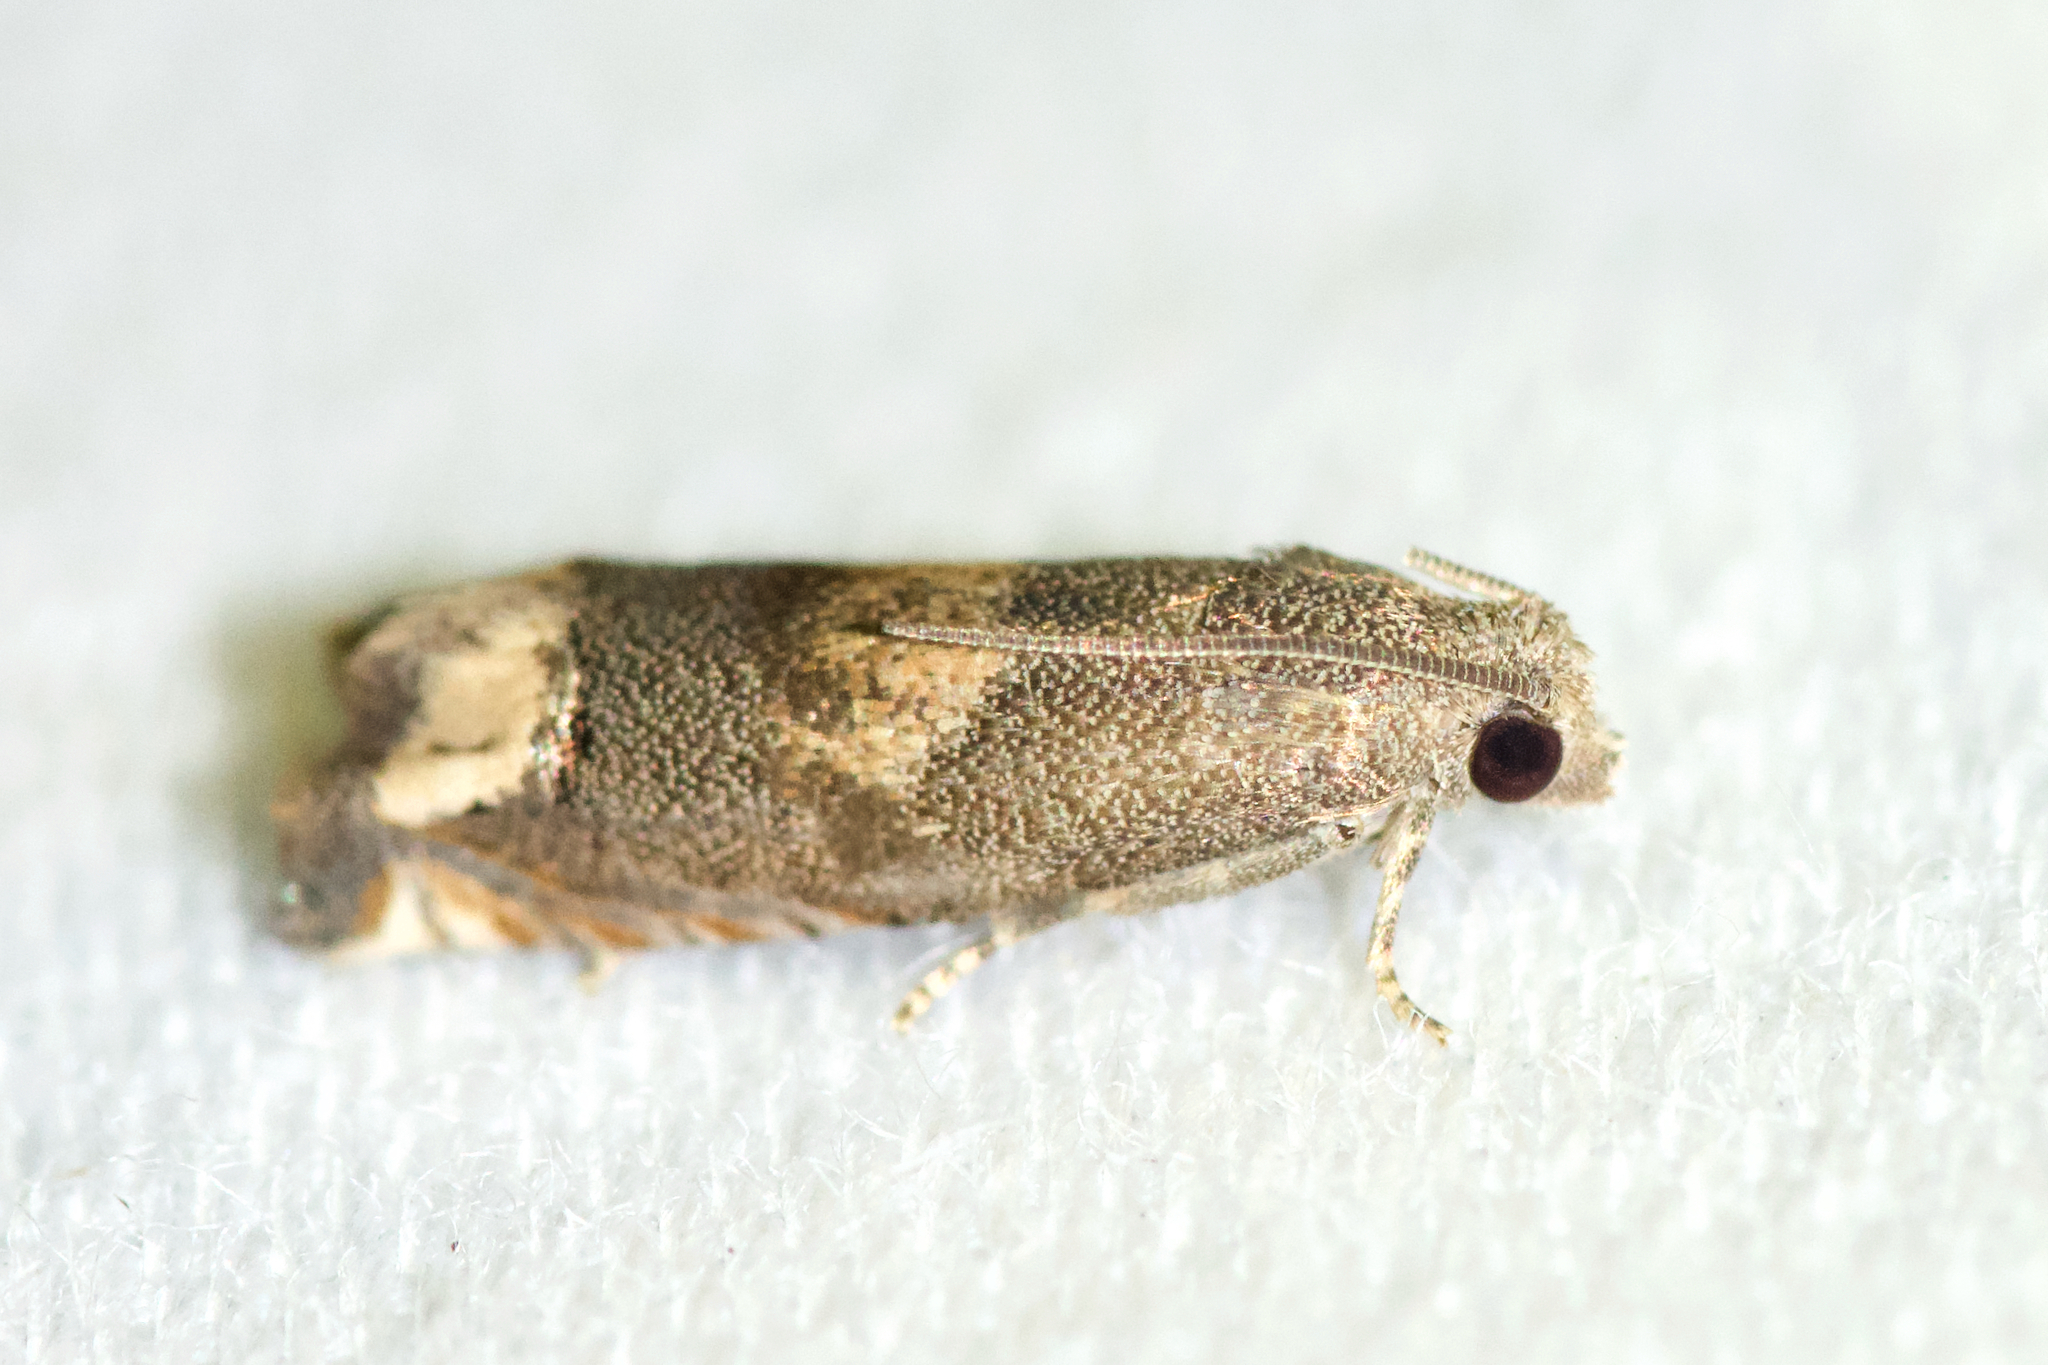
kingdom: Animalia
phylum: Arthropoda
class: Insecta
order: Lepidoptera
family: Tortricidae
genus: Epiblema
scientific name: Epiblema strenuana
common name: Ragweed borer moth
